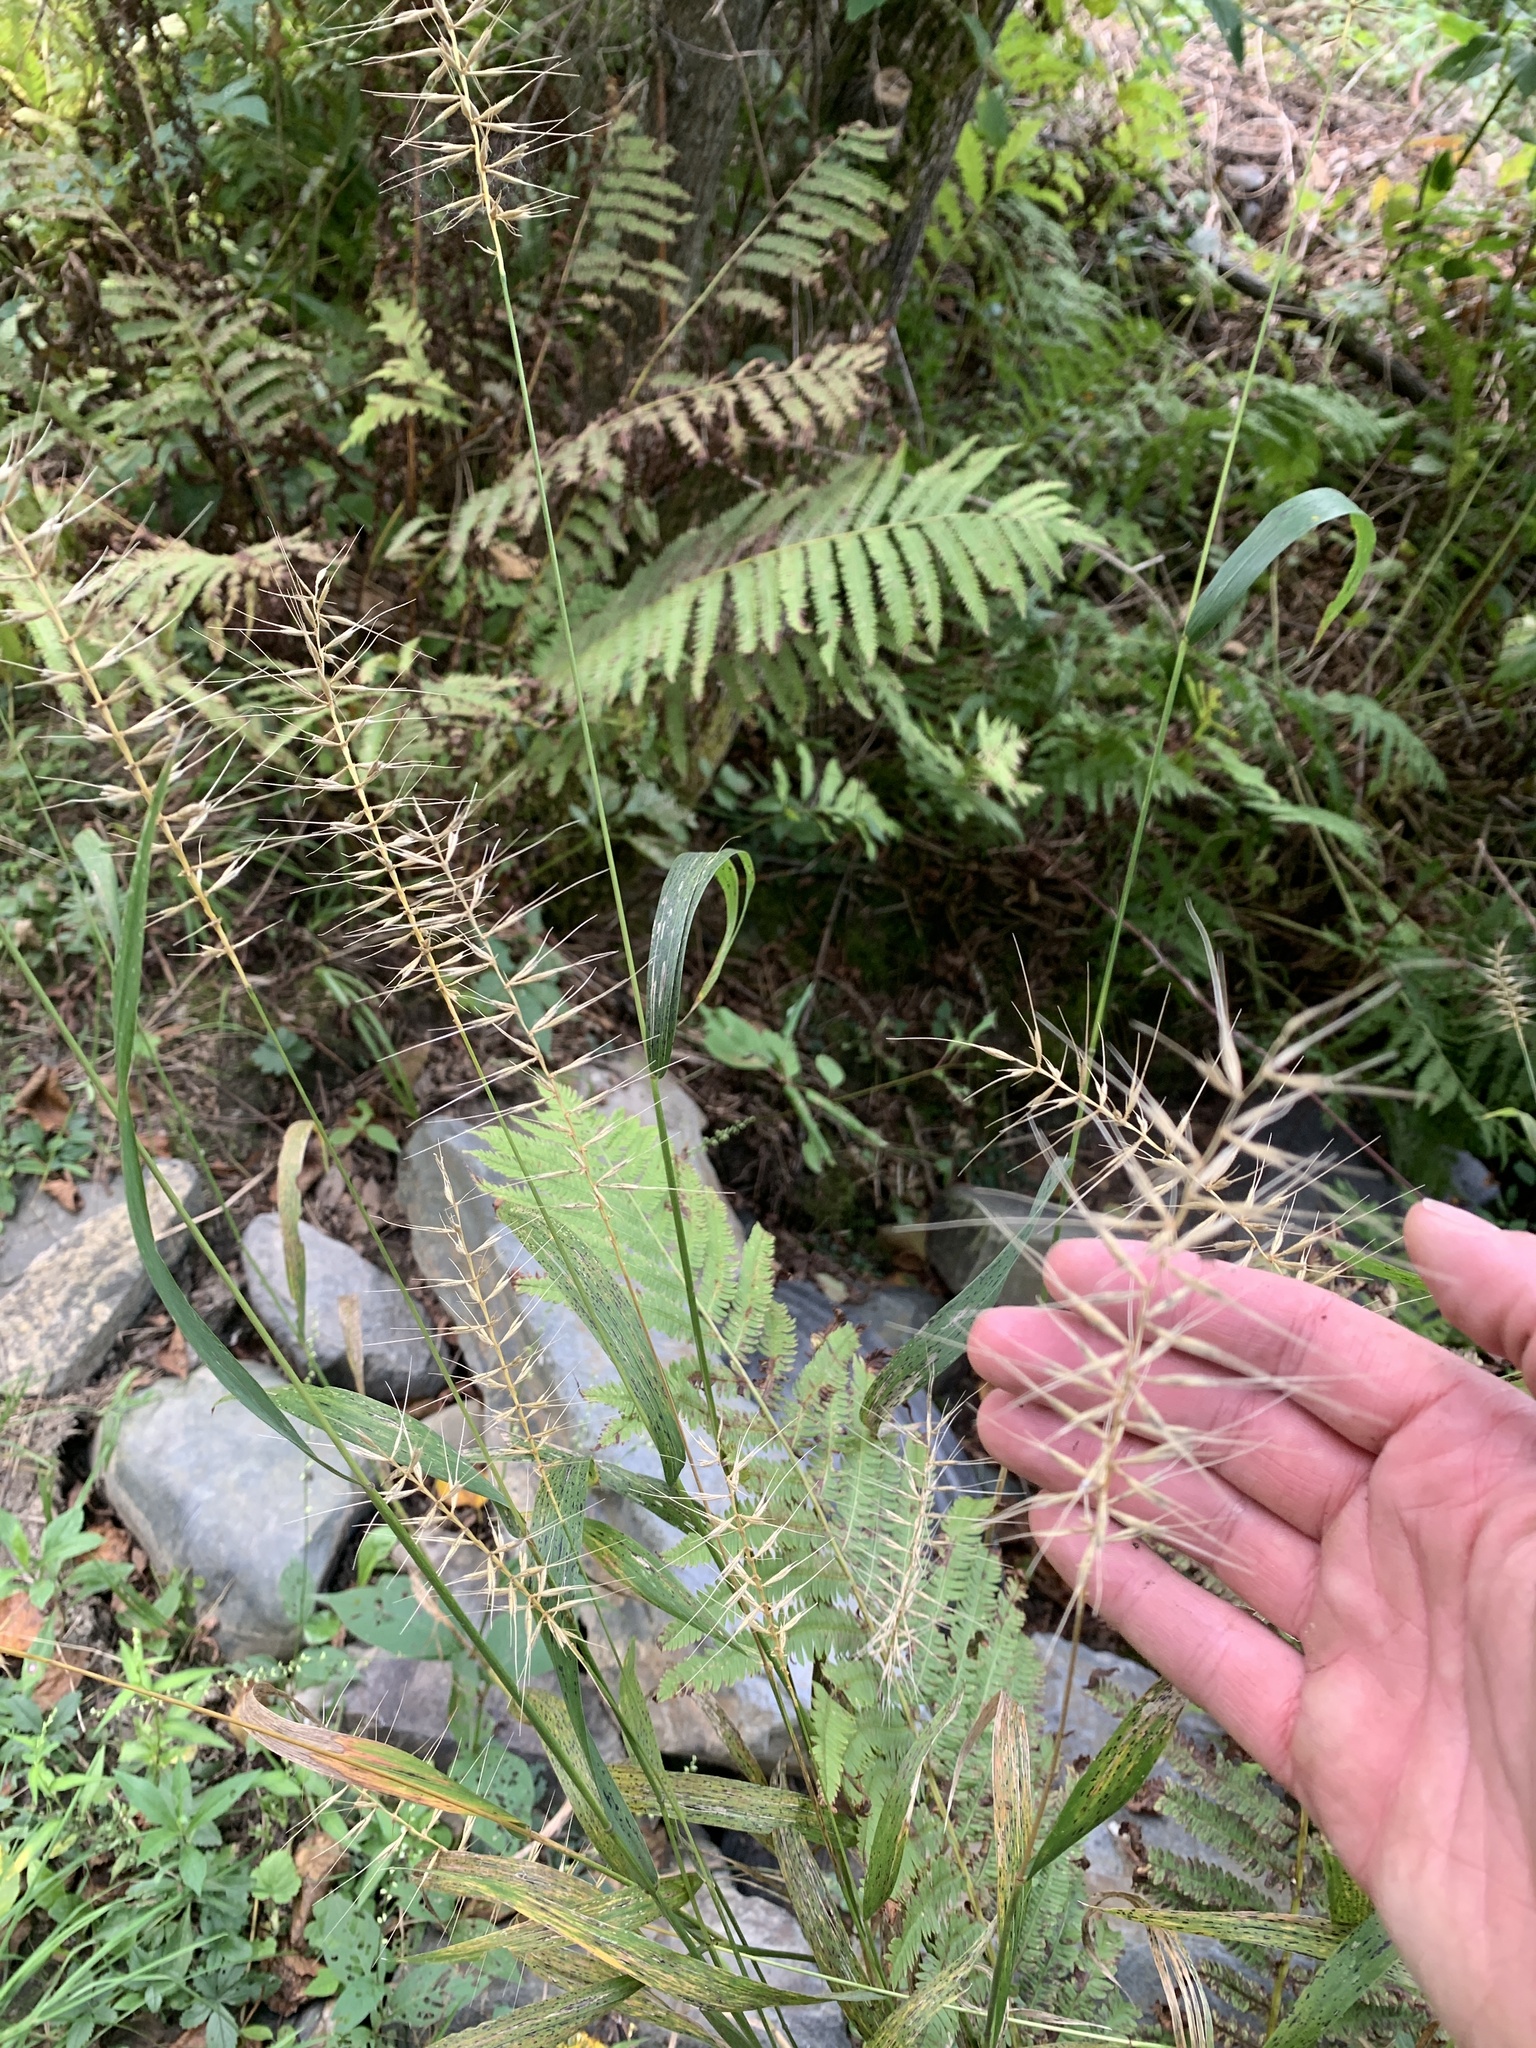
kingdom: Plantae
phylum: Tracheophyta
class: Liliopsida
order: Poales
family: Poaceae
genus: Elymus
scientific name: Elymus hystrix
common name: Bottlebrush grass
